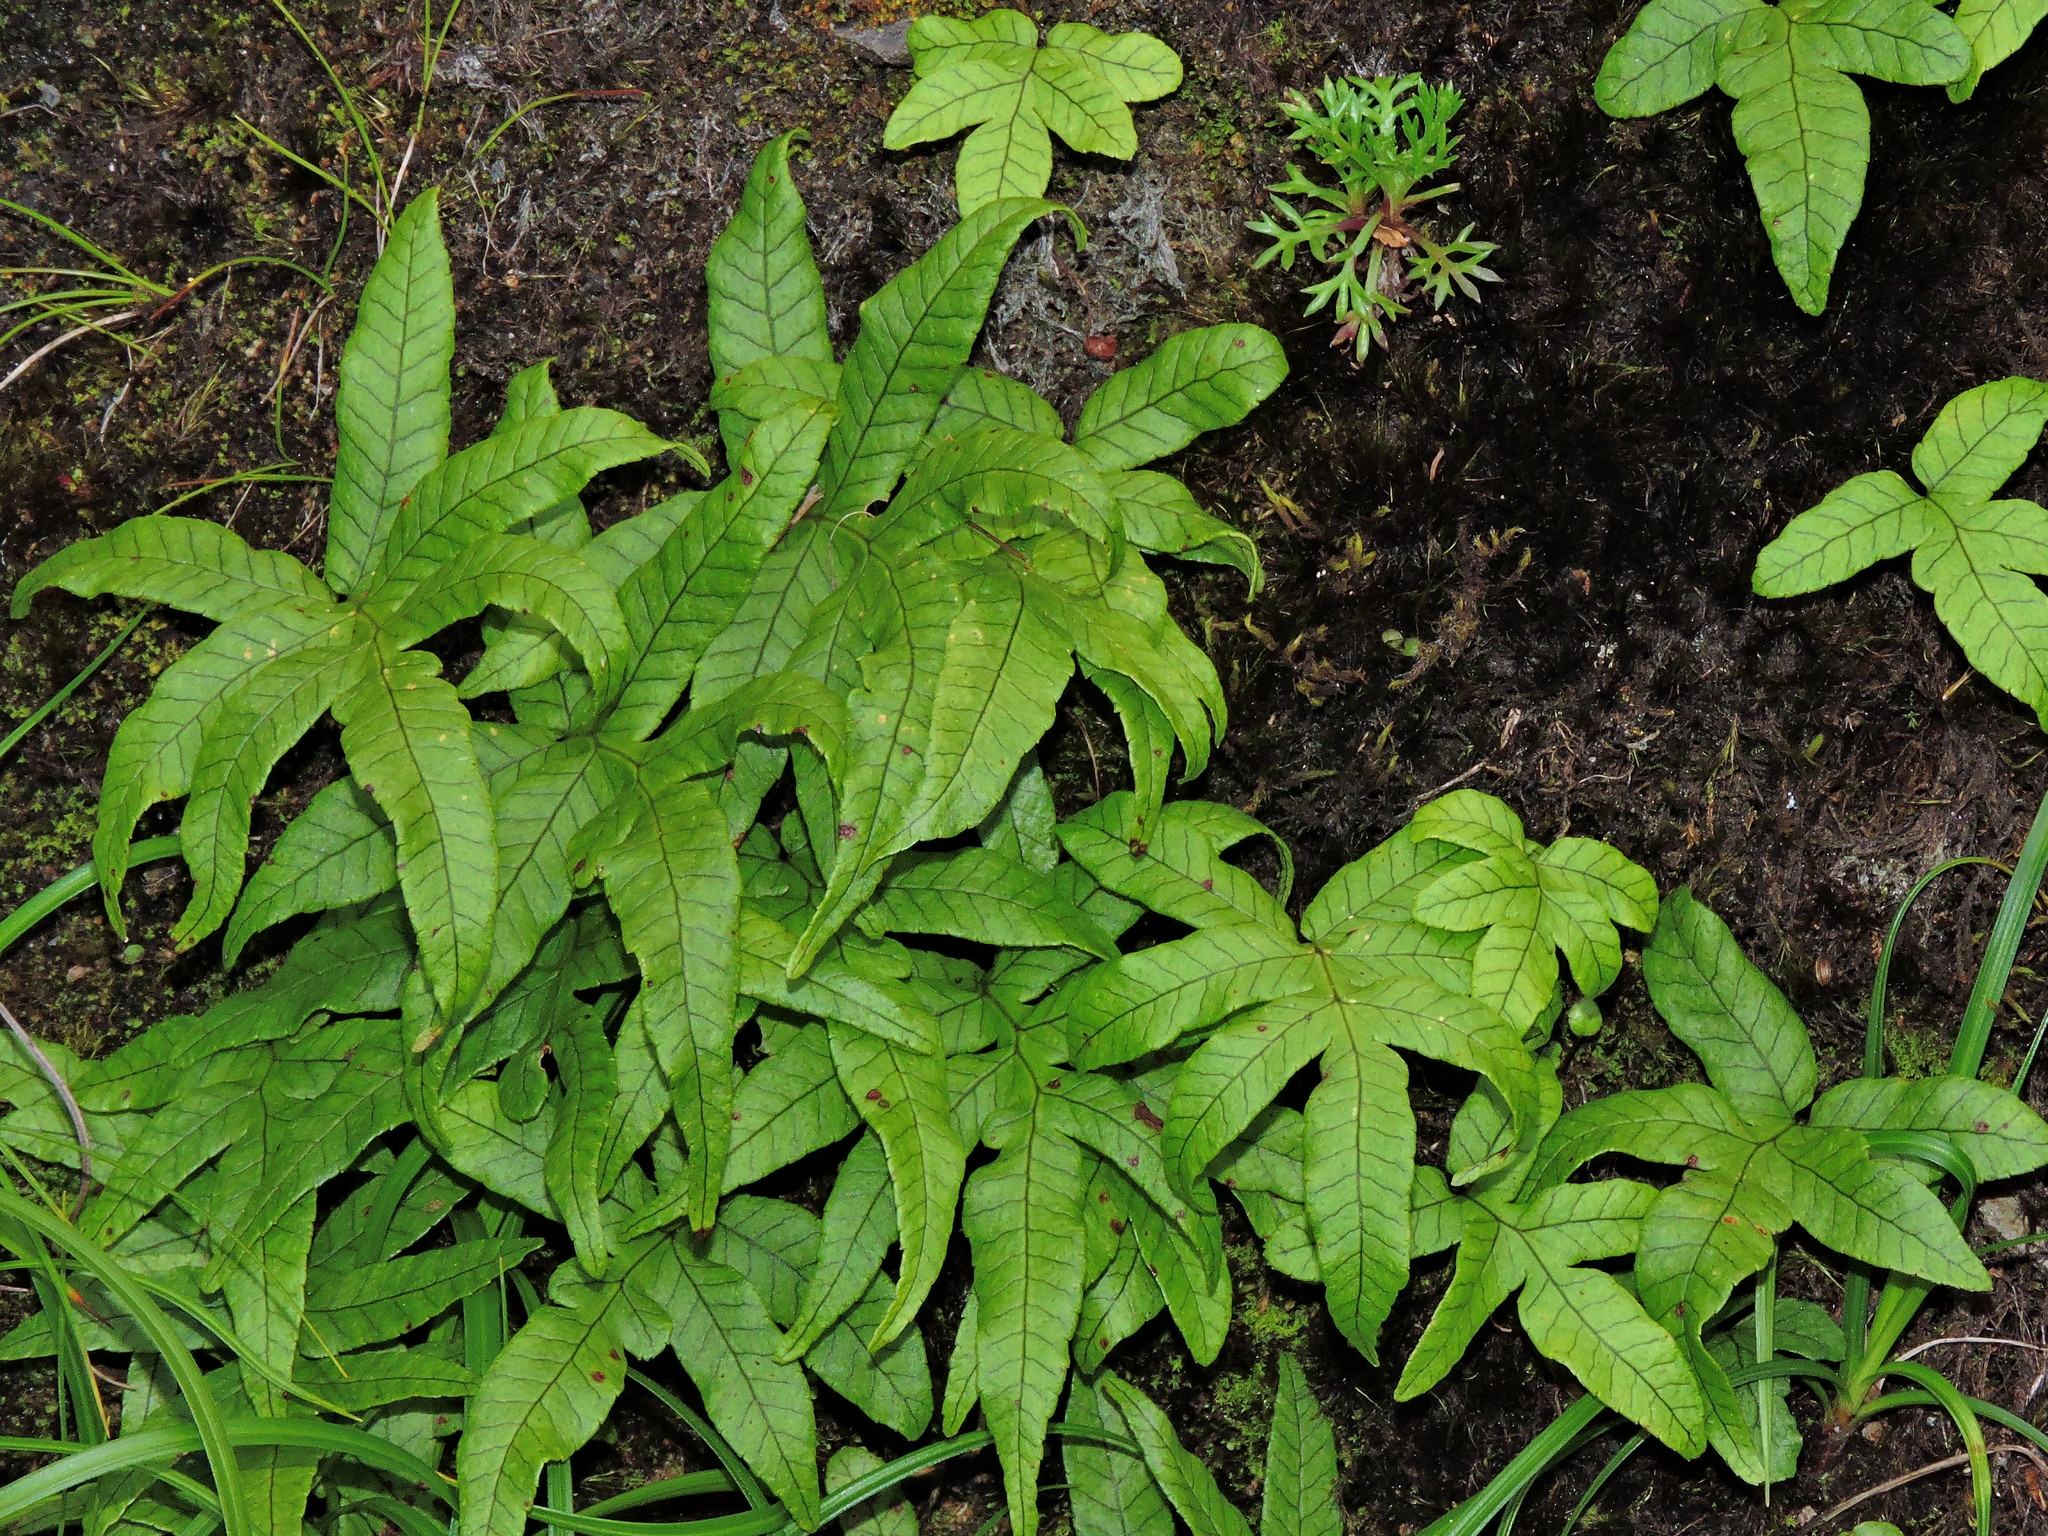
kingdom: Plantae
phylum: Tracheophyta
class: Polypodiopsida
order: Polypodiales
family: Polypodiaceae
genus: Selliguea
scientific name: Selliguea quasidivaricata
